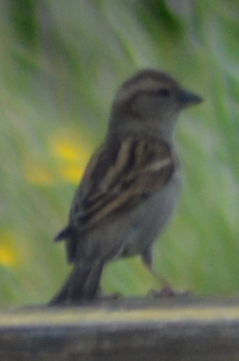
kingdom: Animalia
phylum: Chordata
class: Aves
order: Passeriformes
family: Passeridae
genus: Passer
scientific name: Passer domesticus
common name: House sparrow
